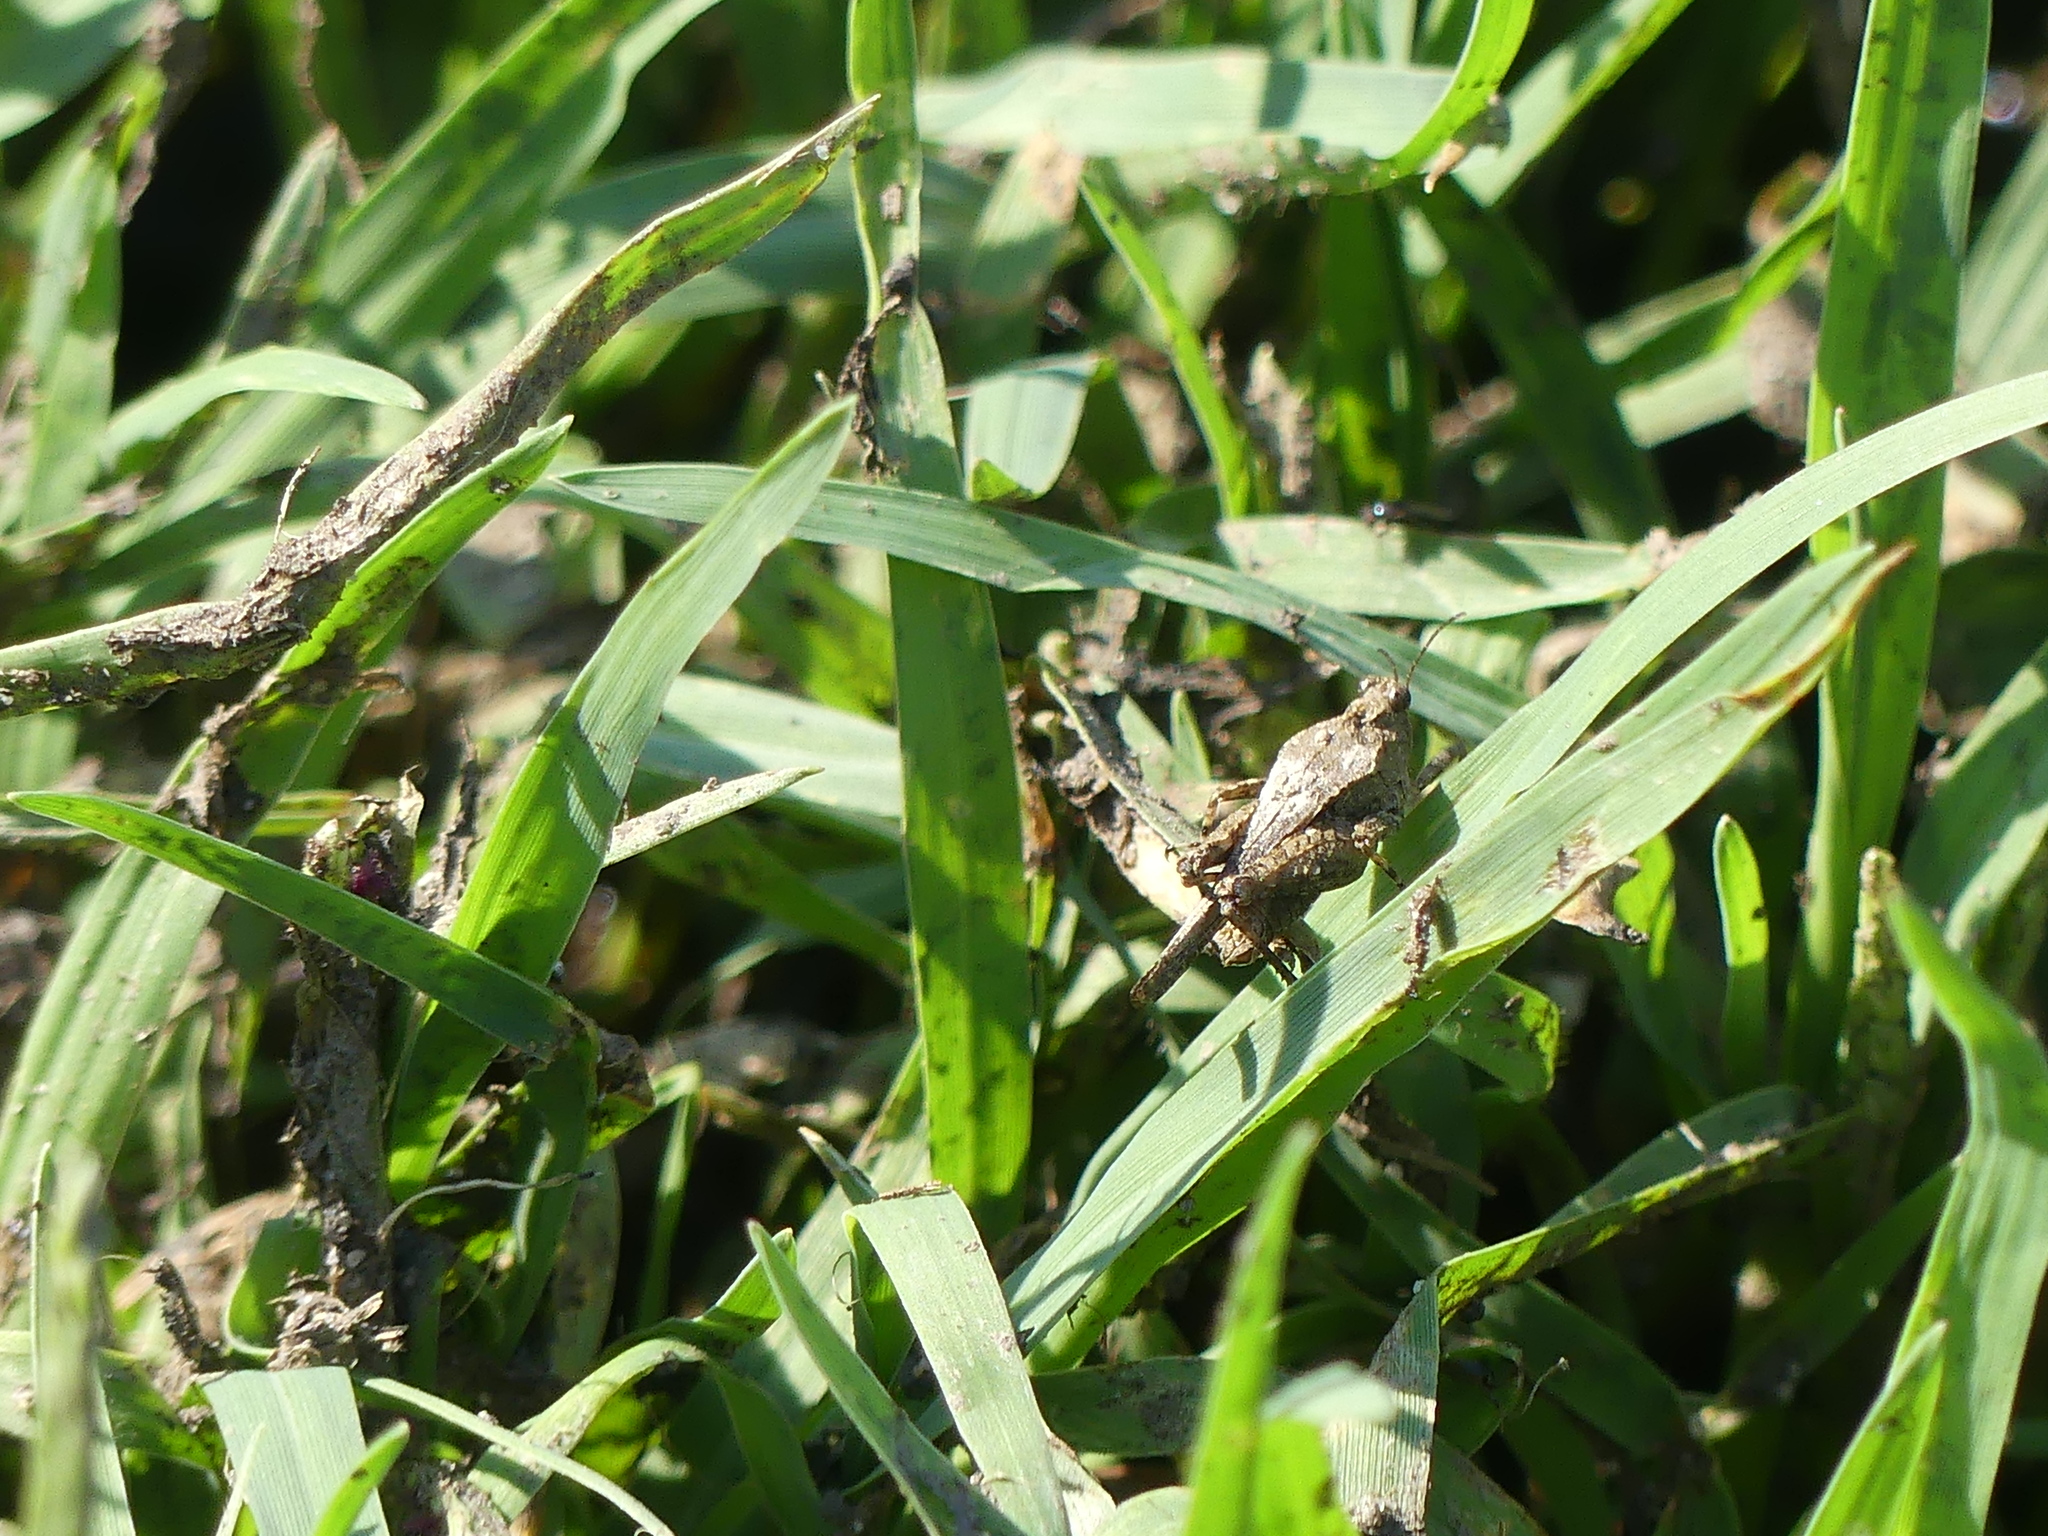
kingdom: Animalia
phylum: Arthropoda
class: Insecta
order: Orthoptera
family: Tetrigidae
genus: Paratettix
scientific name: Paratettix meridionalis
